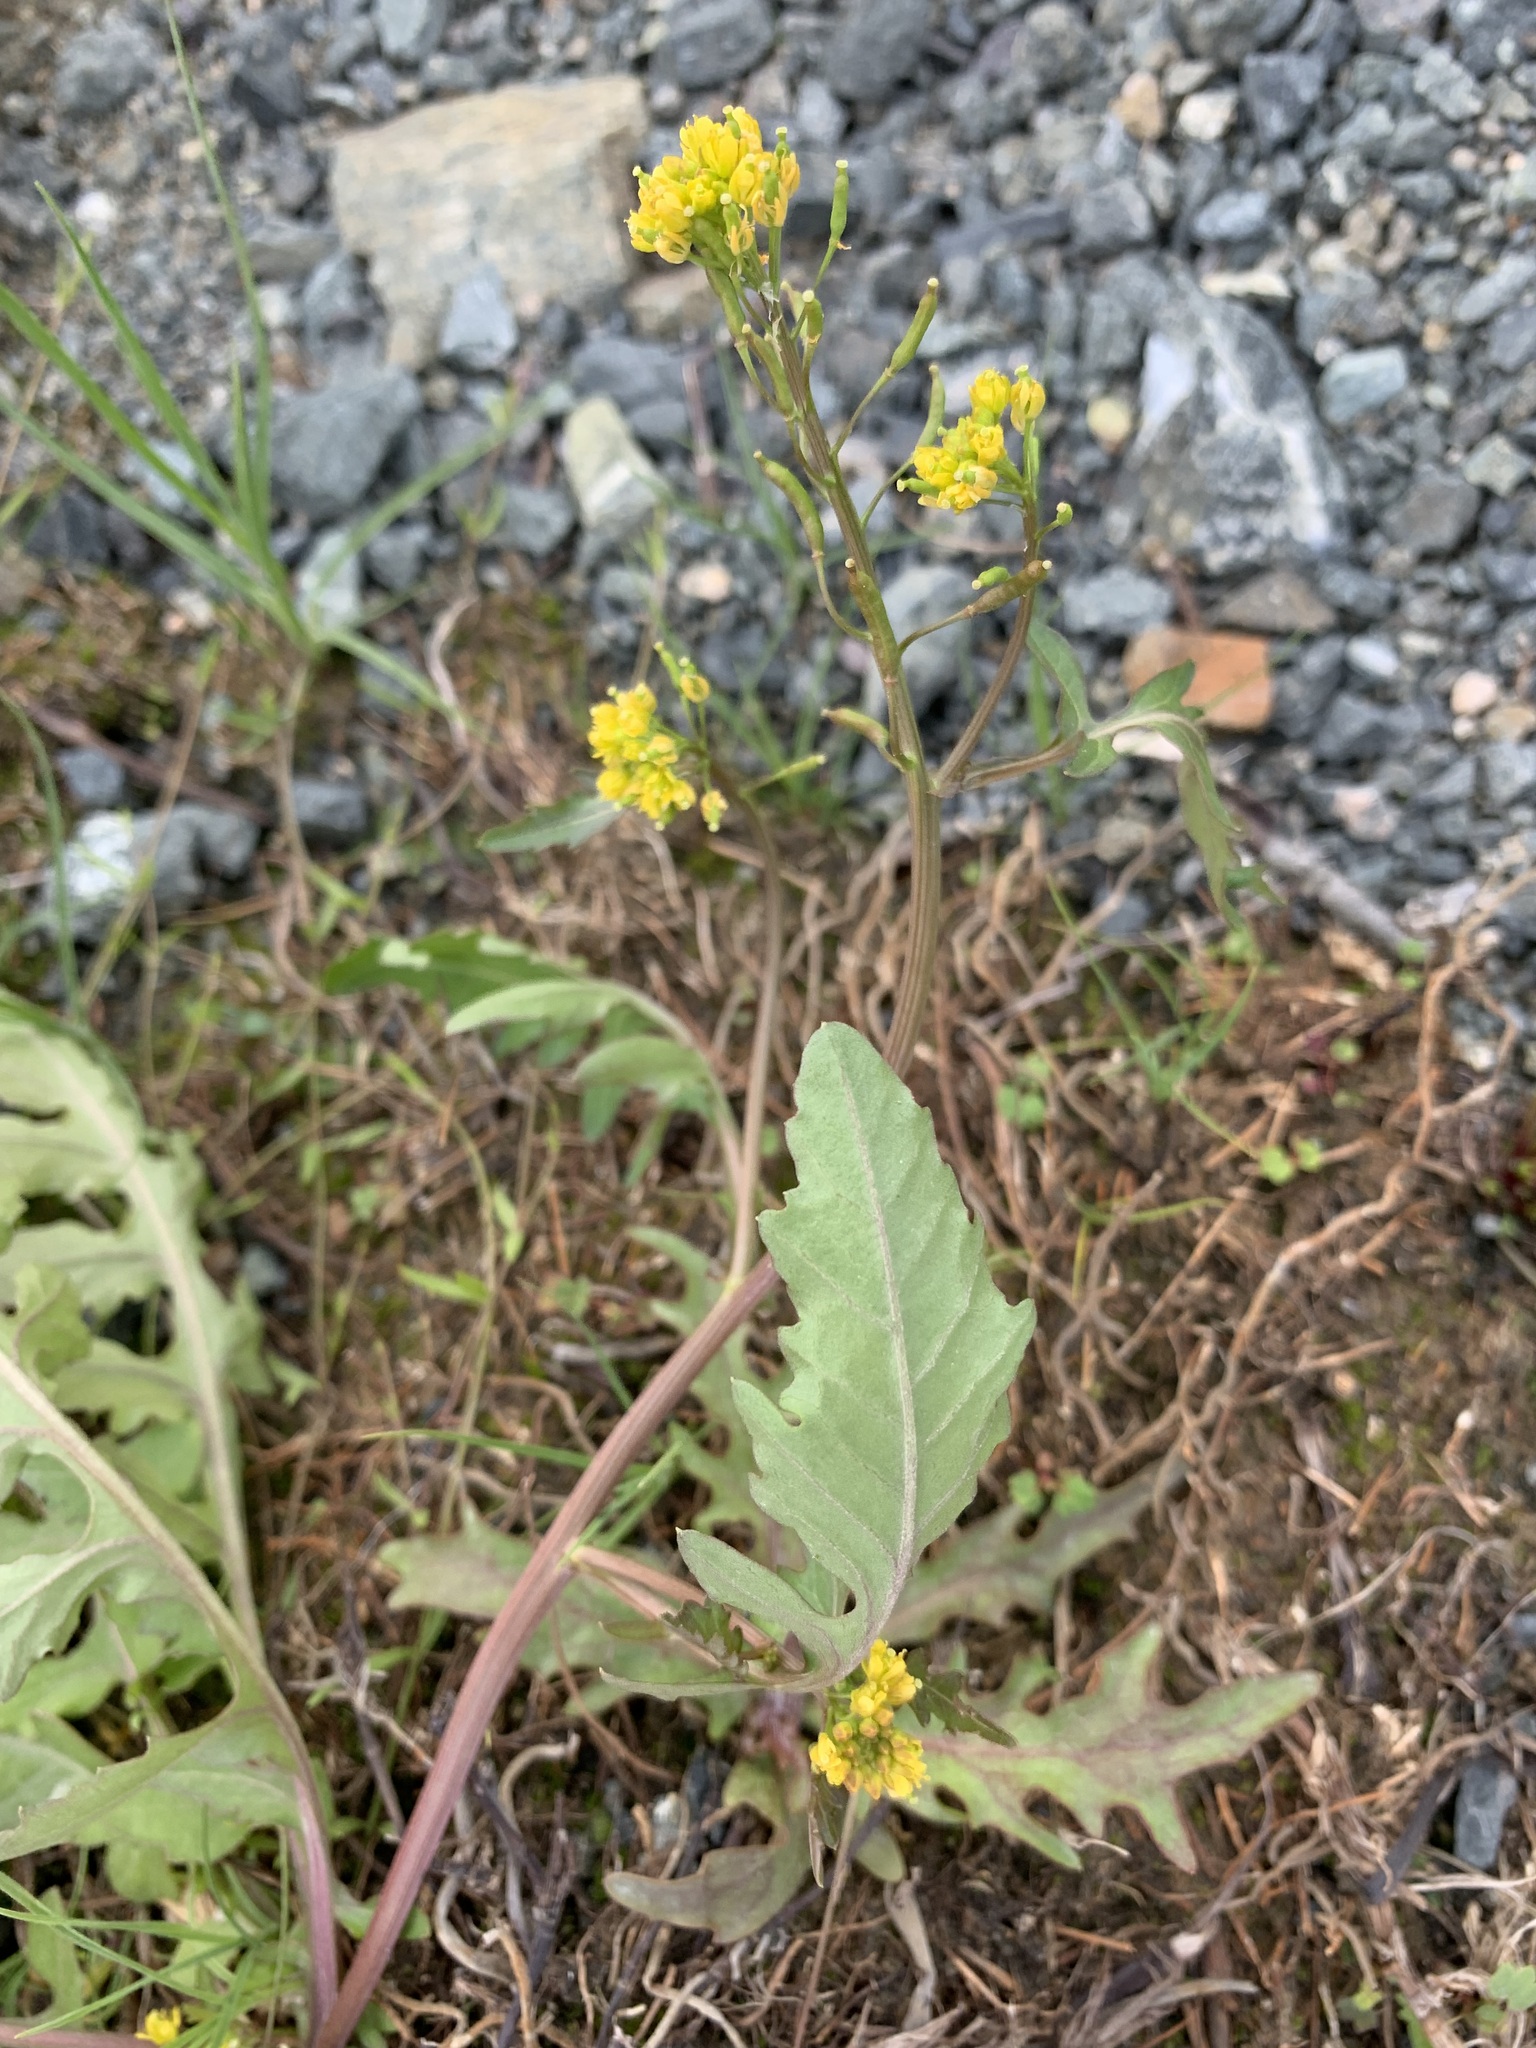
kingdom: Plantae
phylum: Tracheophyta
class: Magnoliopsida
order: Brassicales
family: Brassicaceae
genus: Rorippa
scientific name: Rorippa palustris
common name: Marsh yellow-cress
